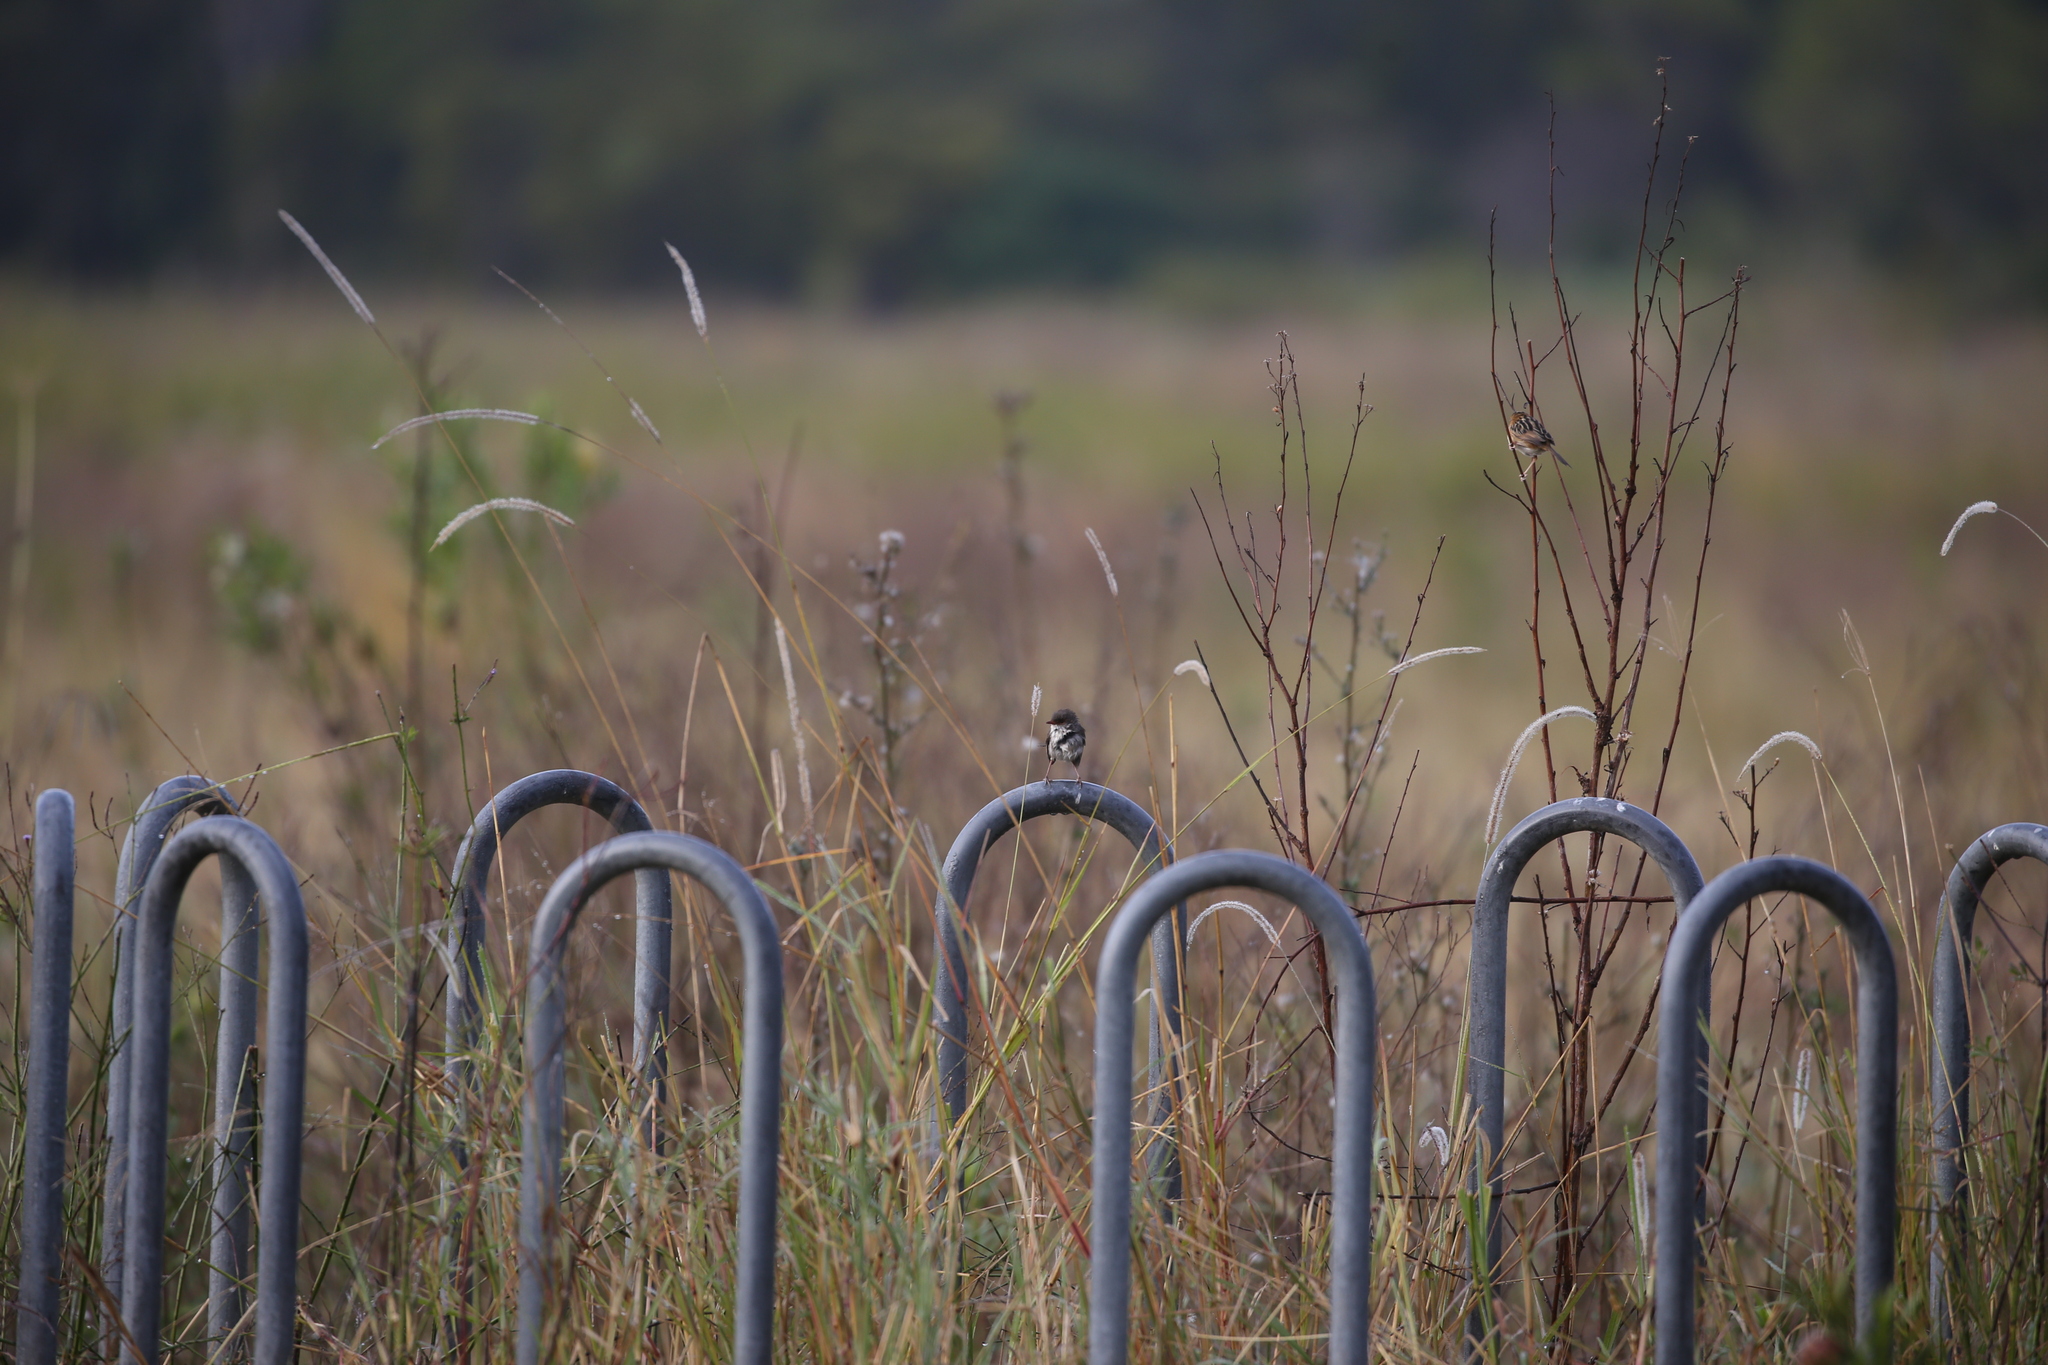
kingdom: Animalia
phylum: Chordata
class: Aves
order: Passeriformes
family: Maluridae
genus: Malurus
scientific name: Malurus cyaneus
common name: Superb fairywren
